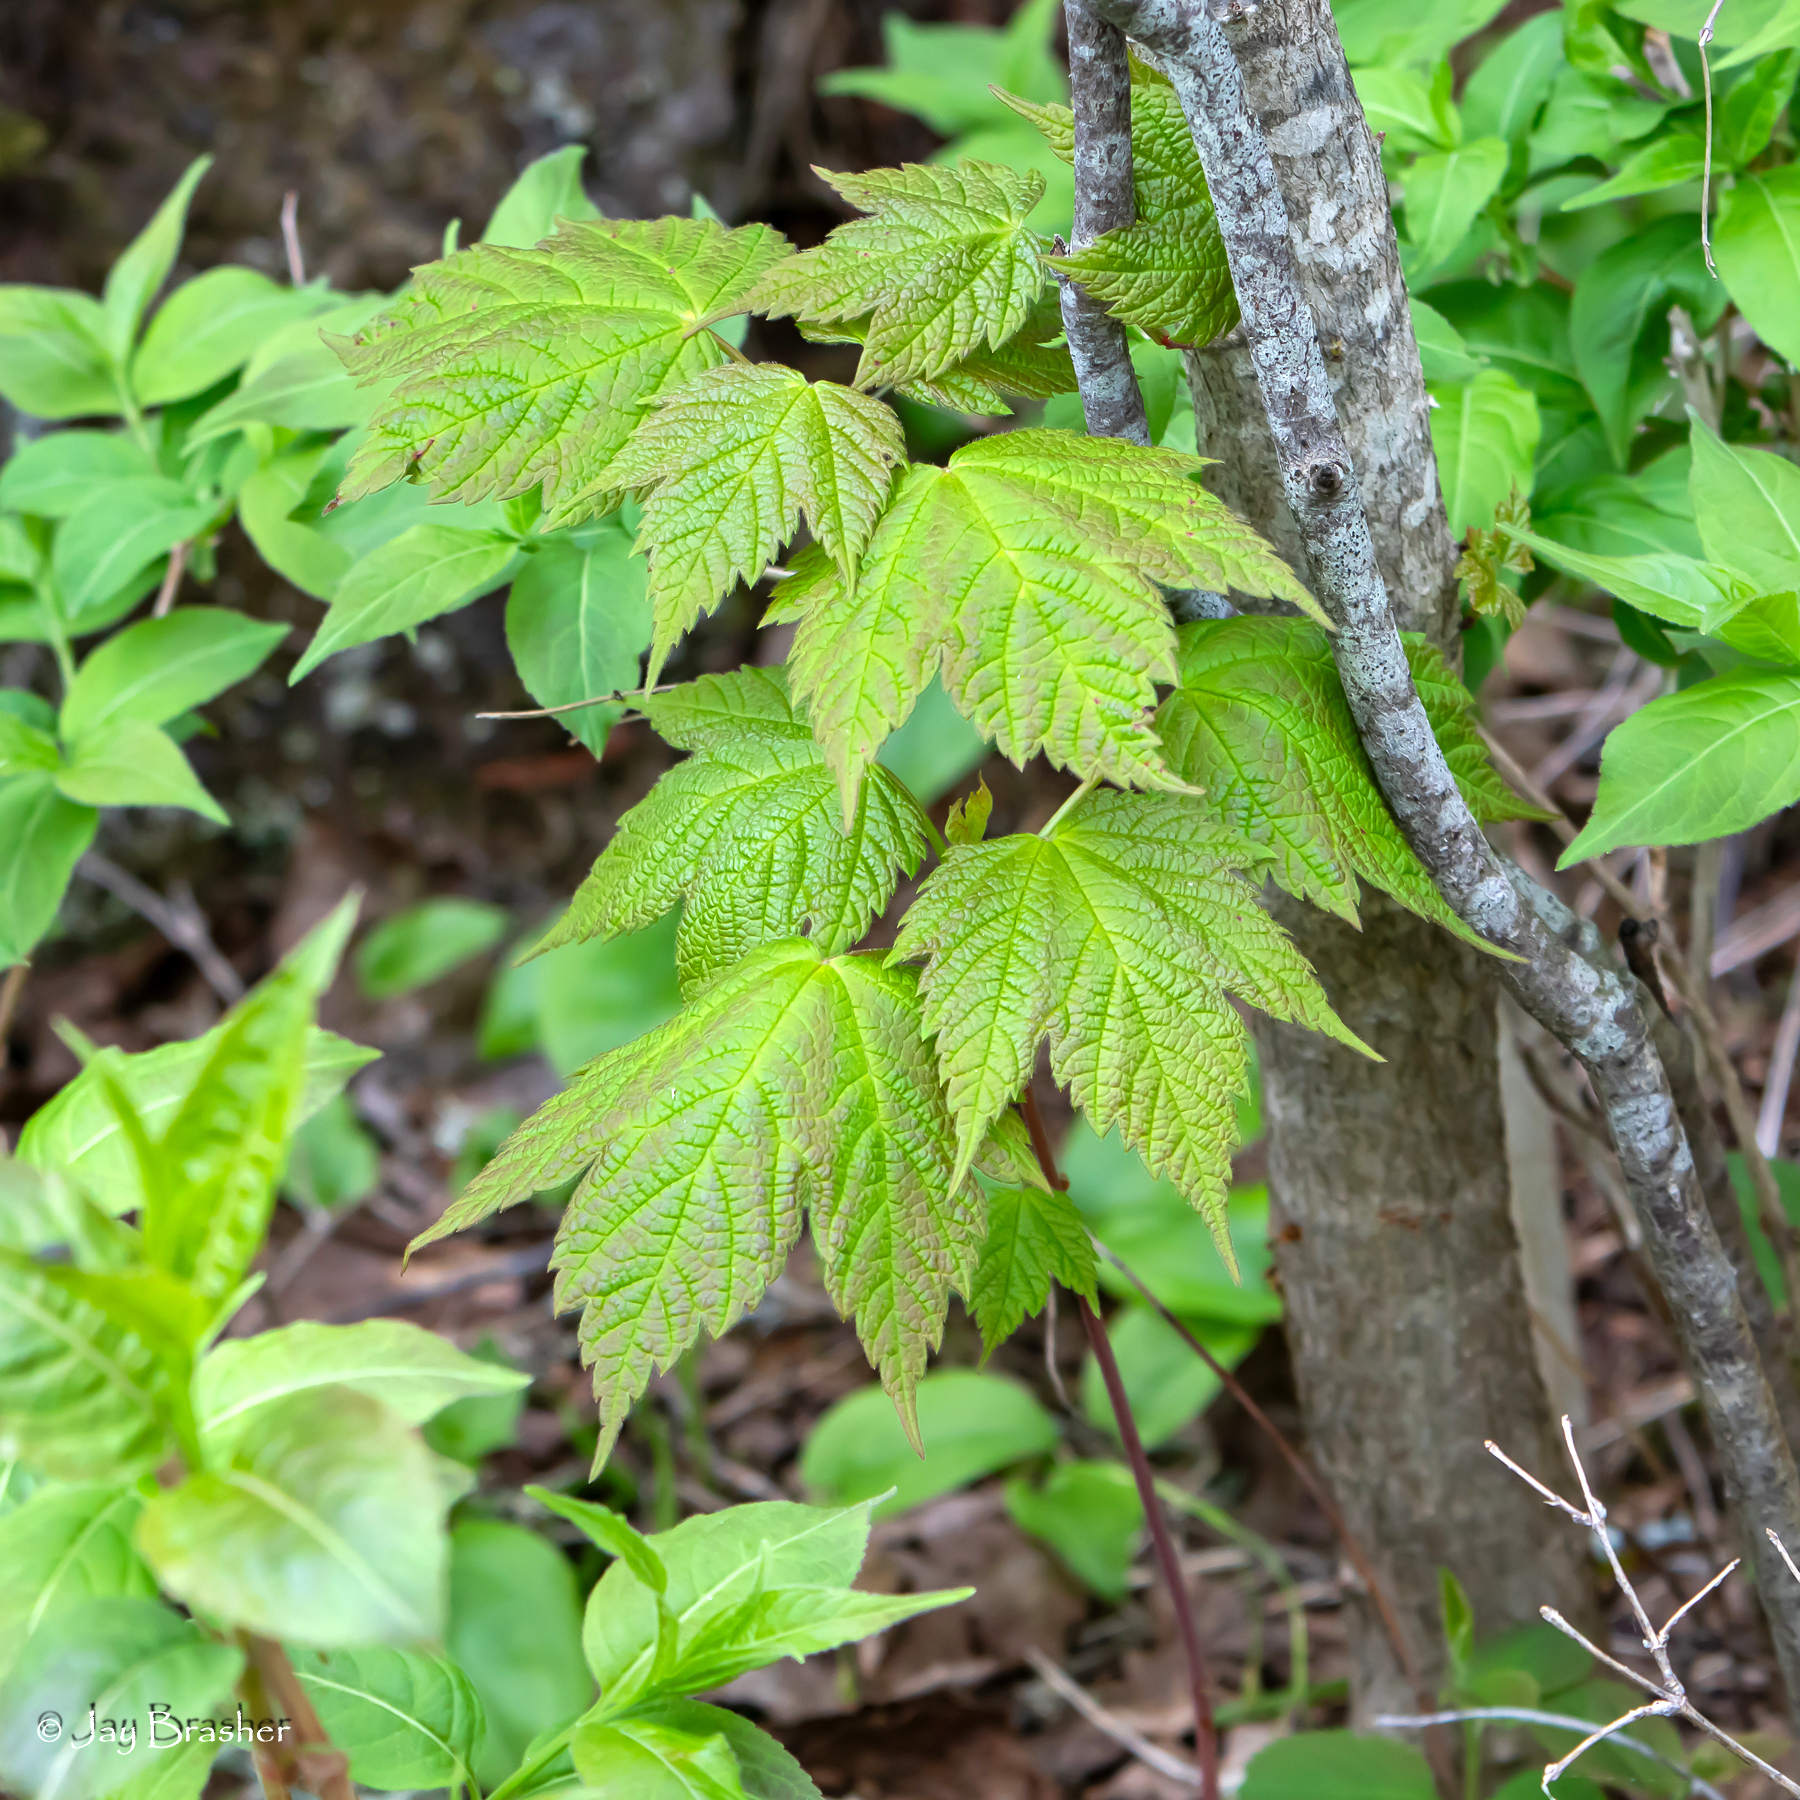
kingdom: Plantae
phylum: Tracheophyta
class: Magnoliopsida
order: Sapindales
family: Sapindaceae
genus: Acer
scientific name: Acer spicatum
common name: Mountain maple
